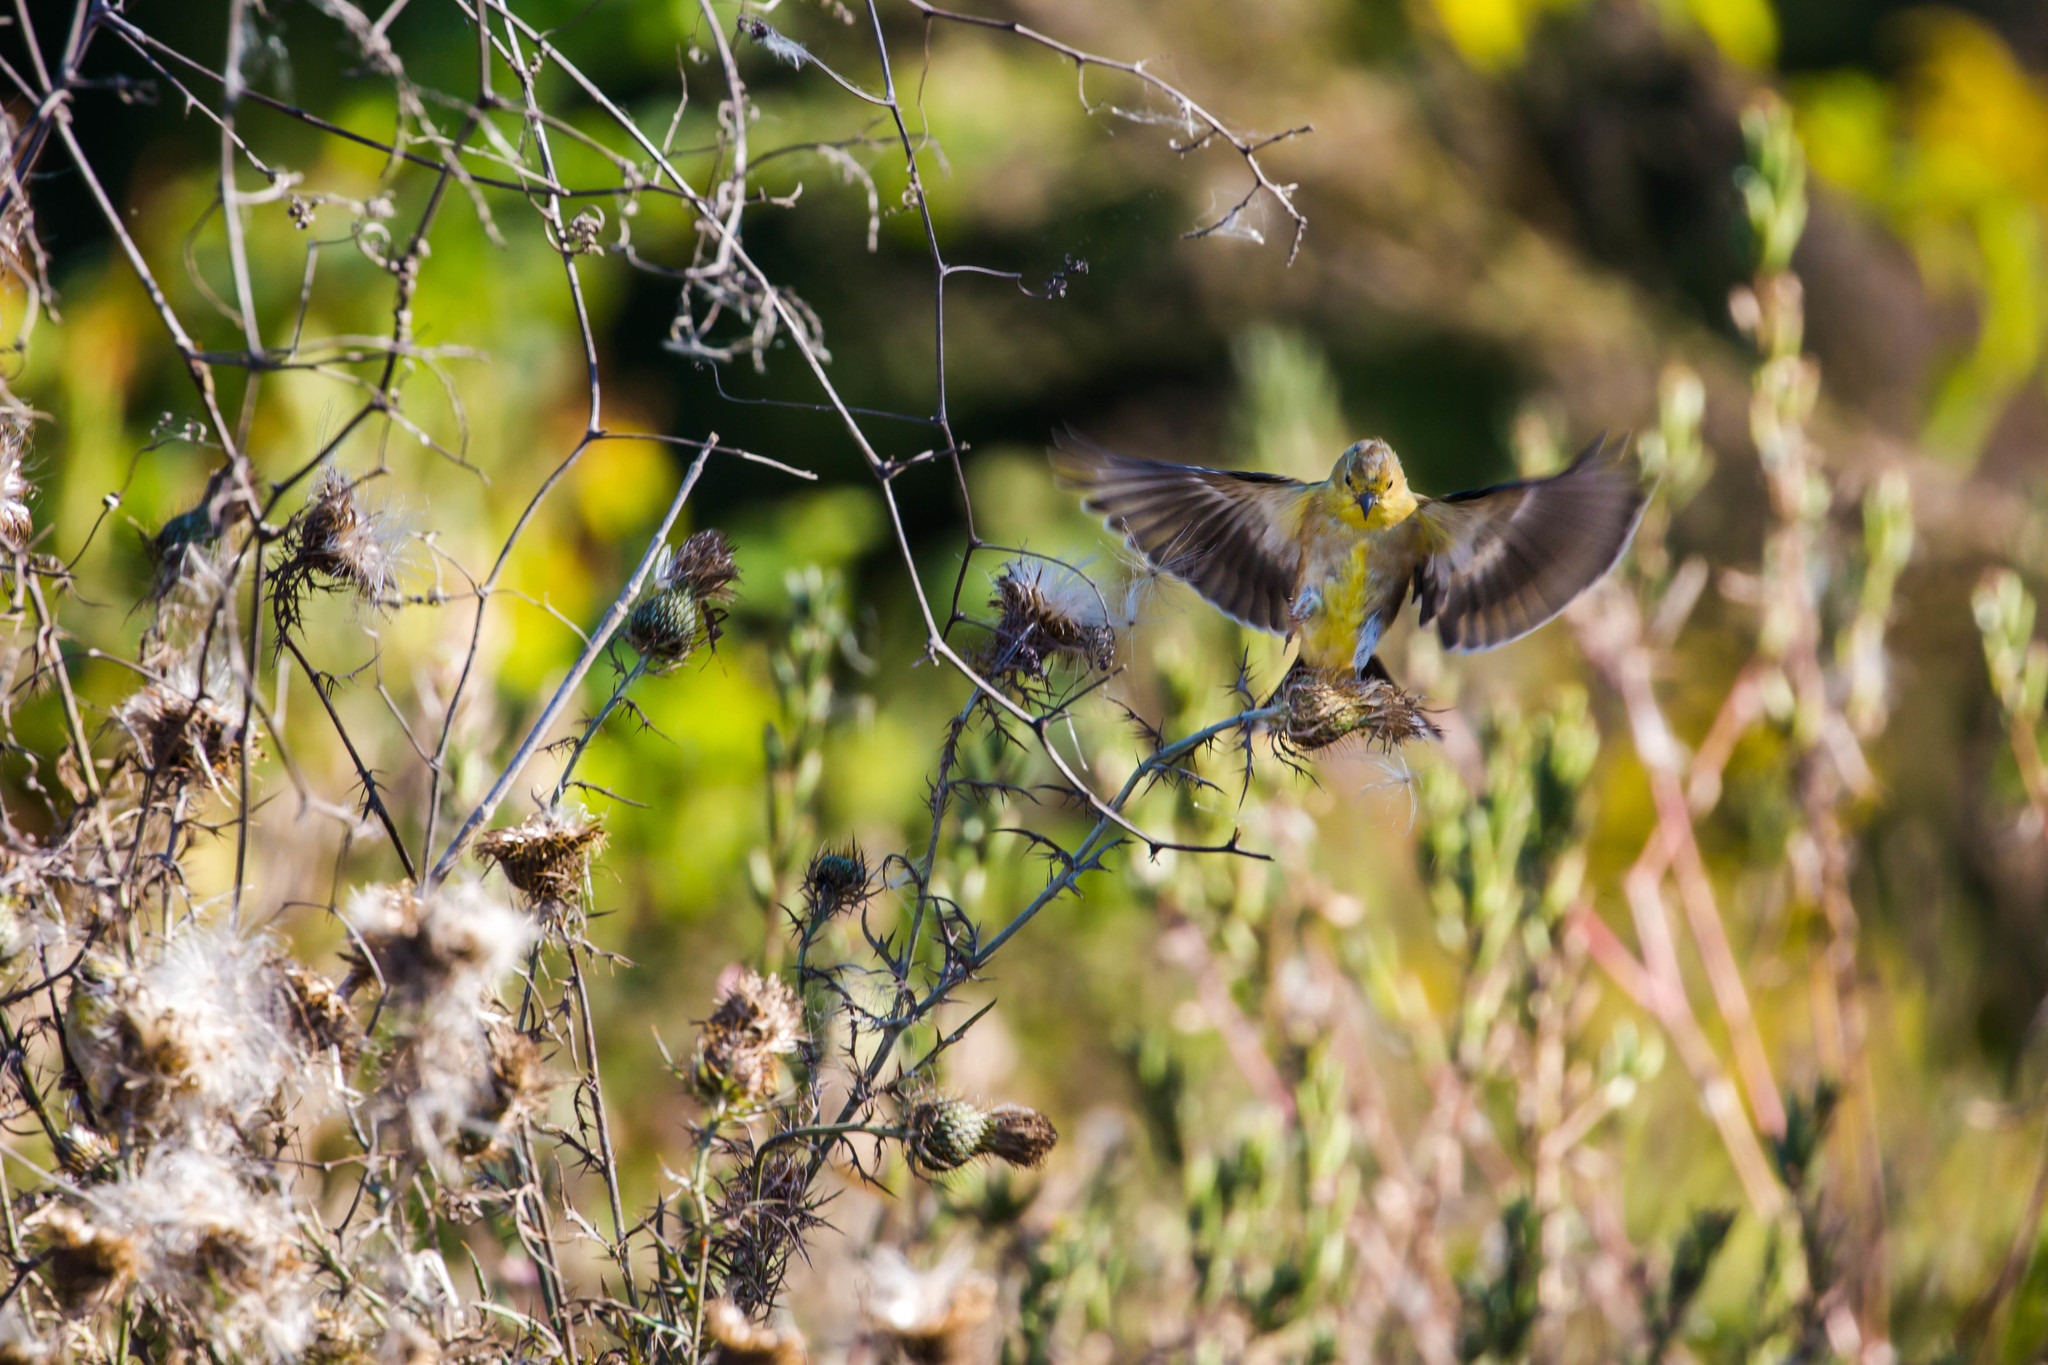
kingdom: Animalia
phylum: Chordata
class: Aves
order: Passeriformes
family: Fringillidae
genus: Spinus
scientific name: Spinus tristis
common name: American goldfinch
